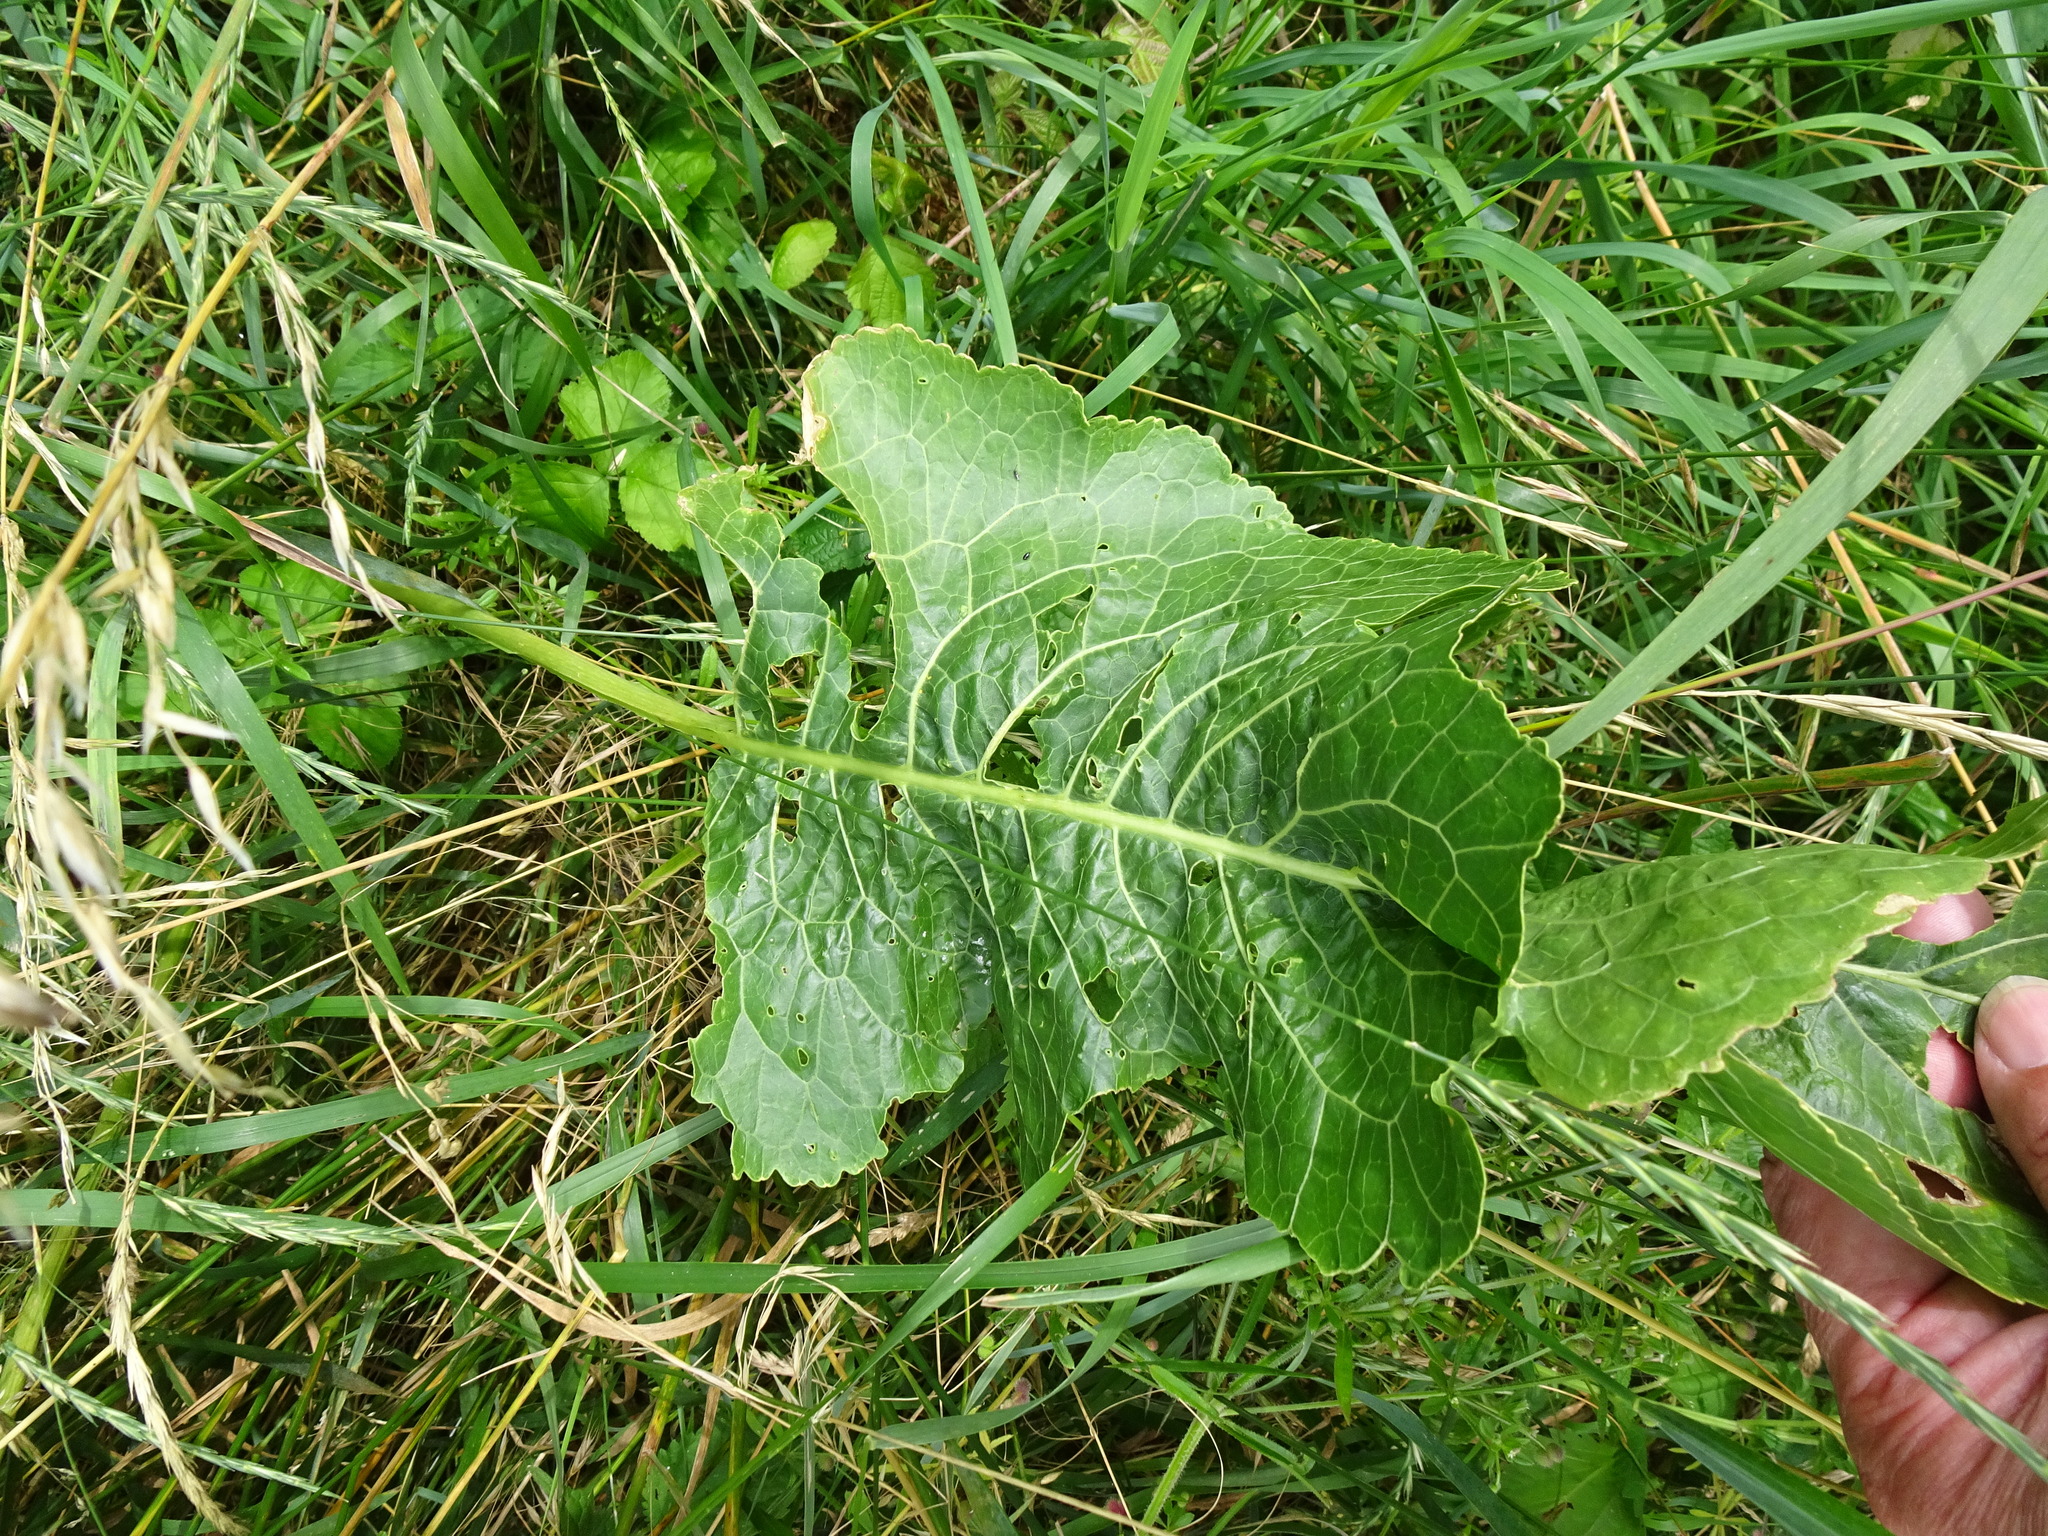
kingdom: Plantae
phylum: Tracheophyta
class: Magnoliopsida
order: Brassicales
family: Brassicaceae
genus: Armoracia
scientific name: Armoracia rusticana
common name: Horseradish
